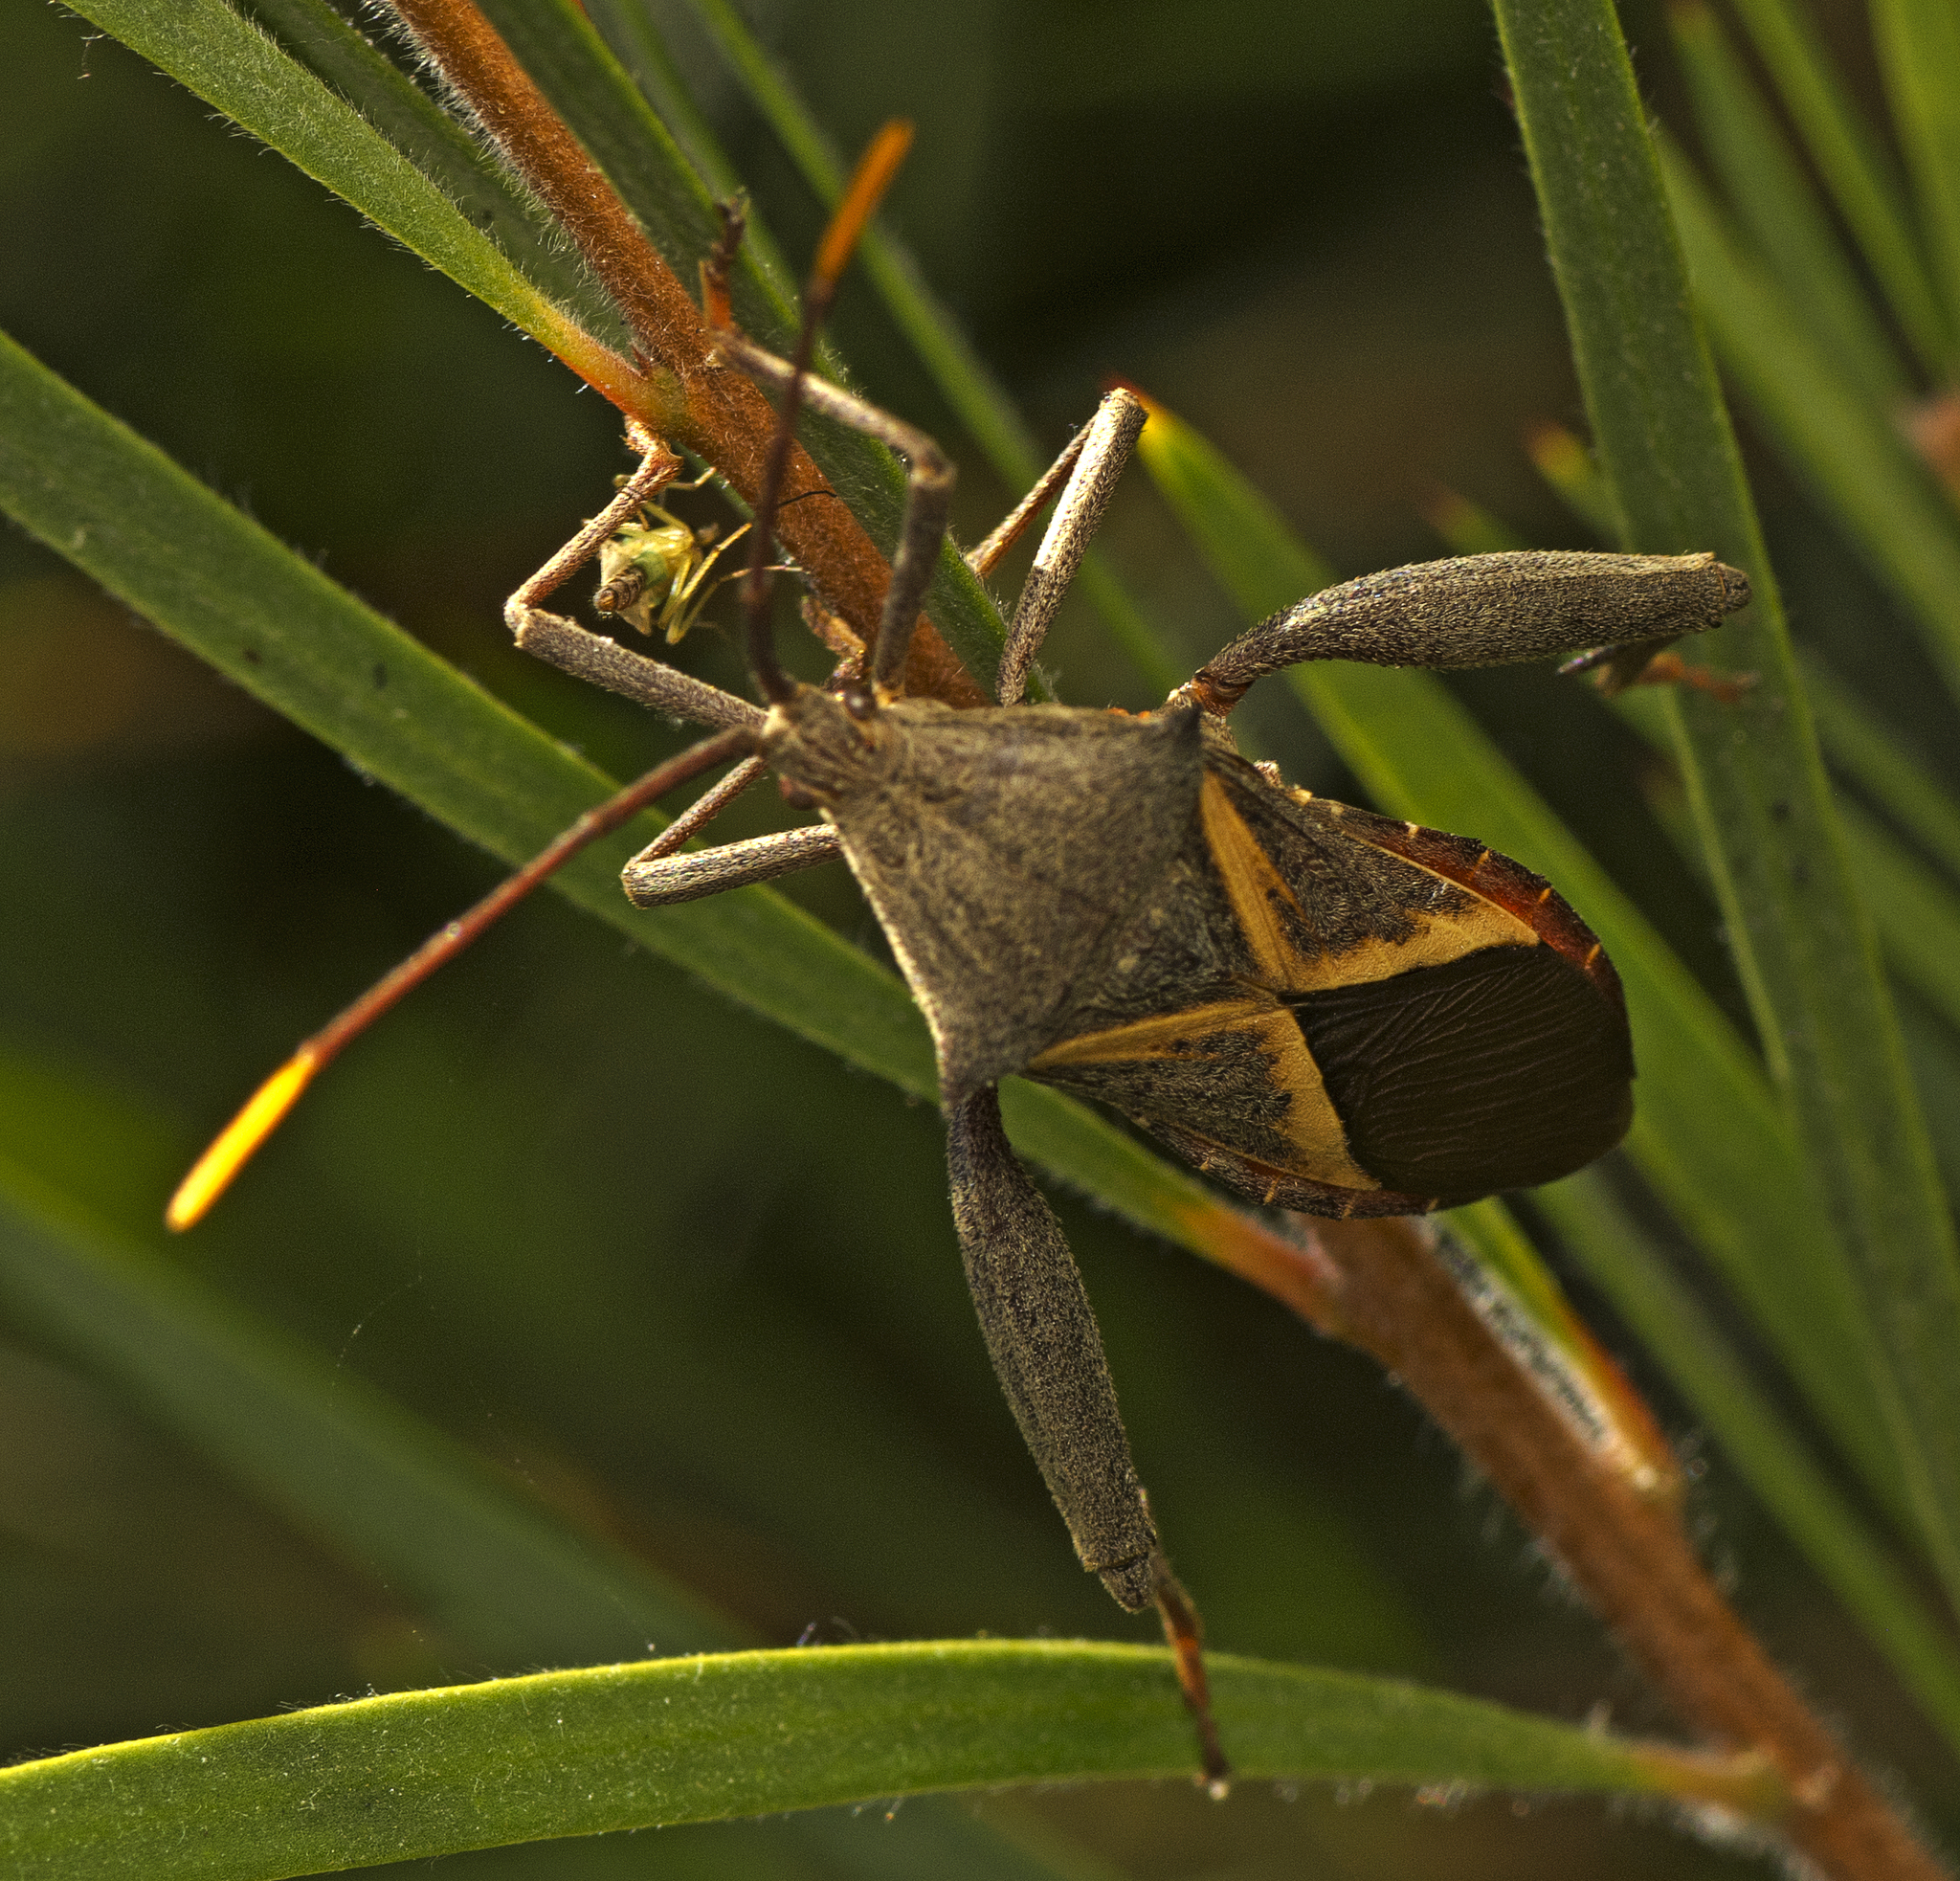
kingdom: Animalia
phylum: Arthropoda
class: Insecta
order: Hemiptera
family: Coreidae
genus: Mictis
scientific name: Mictis profana
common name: Crusader bug
